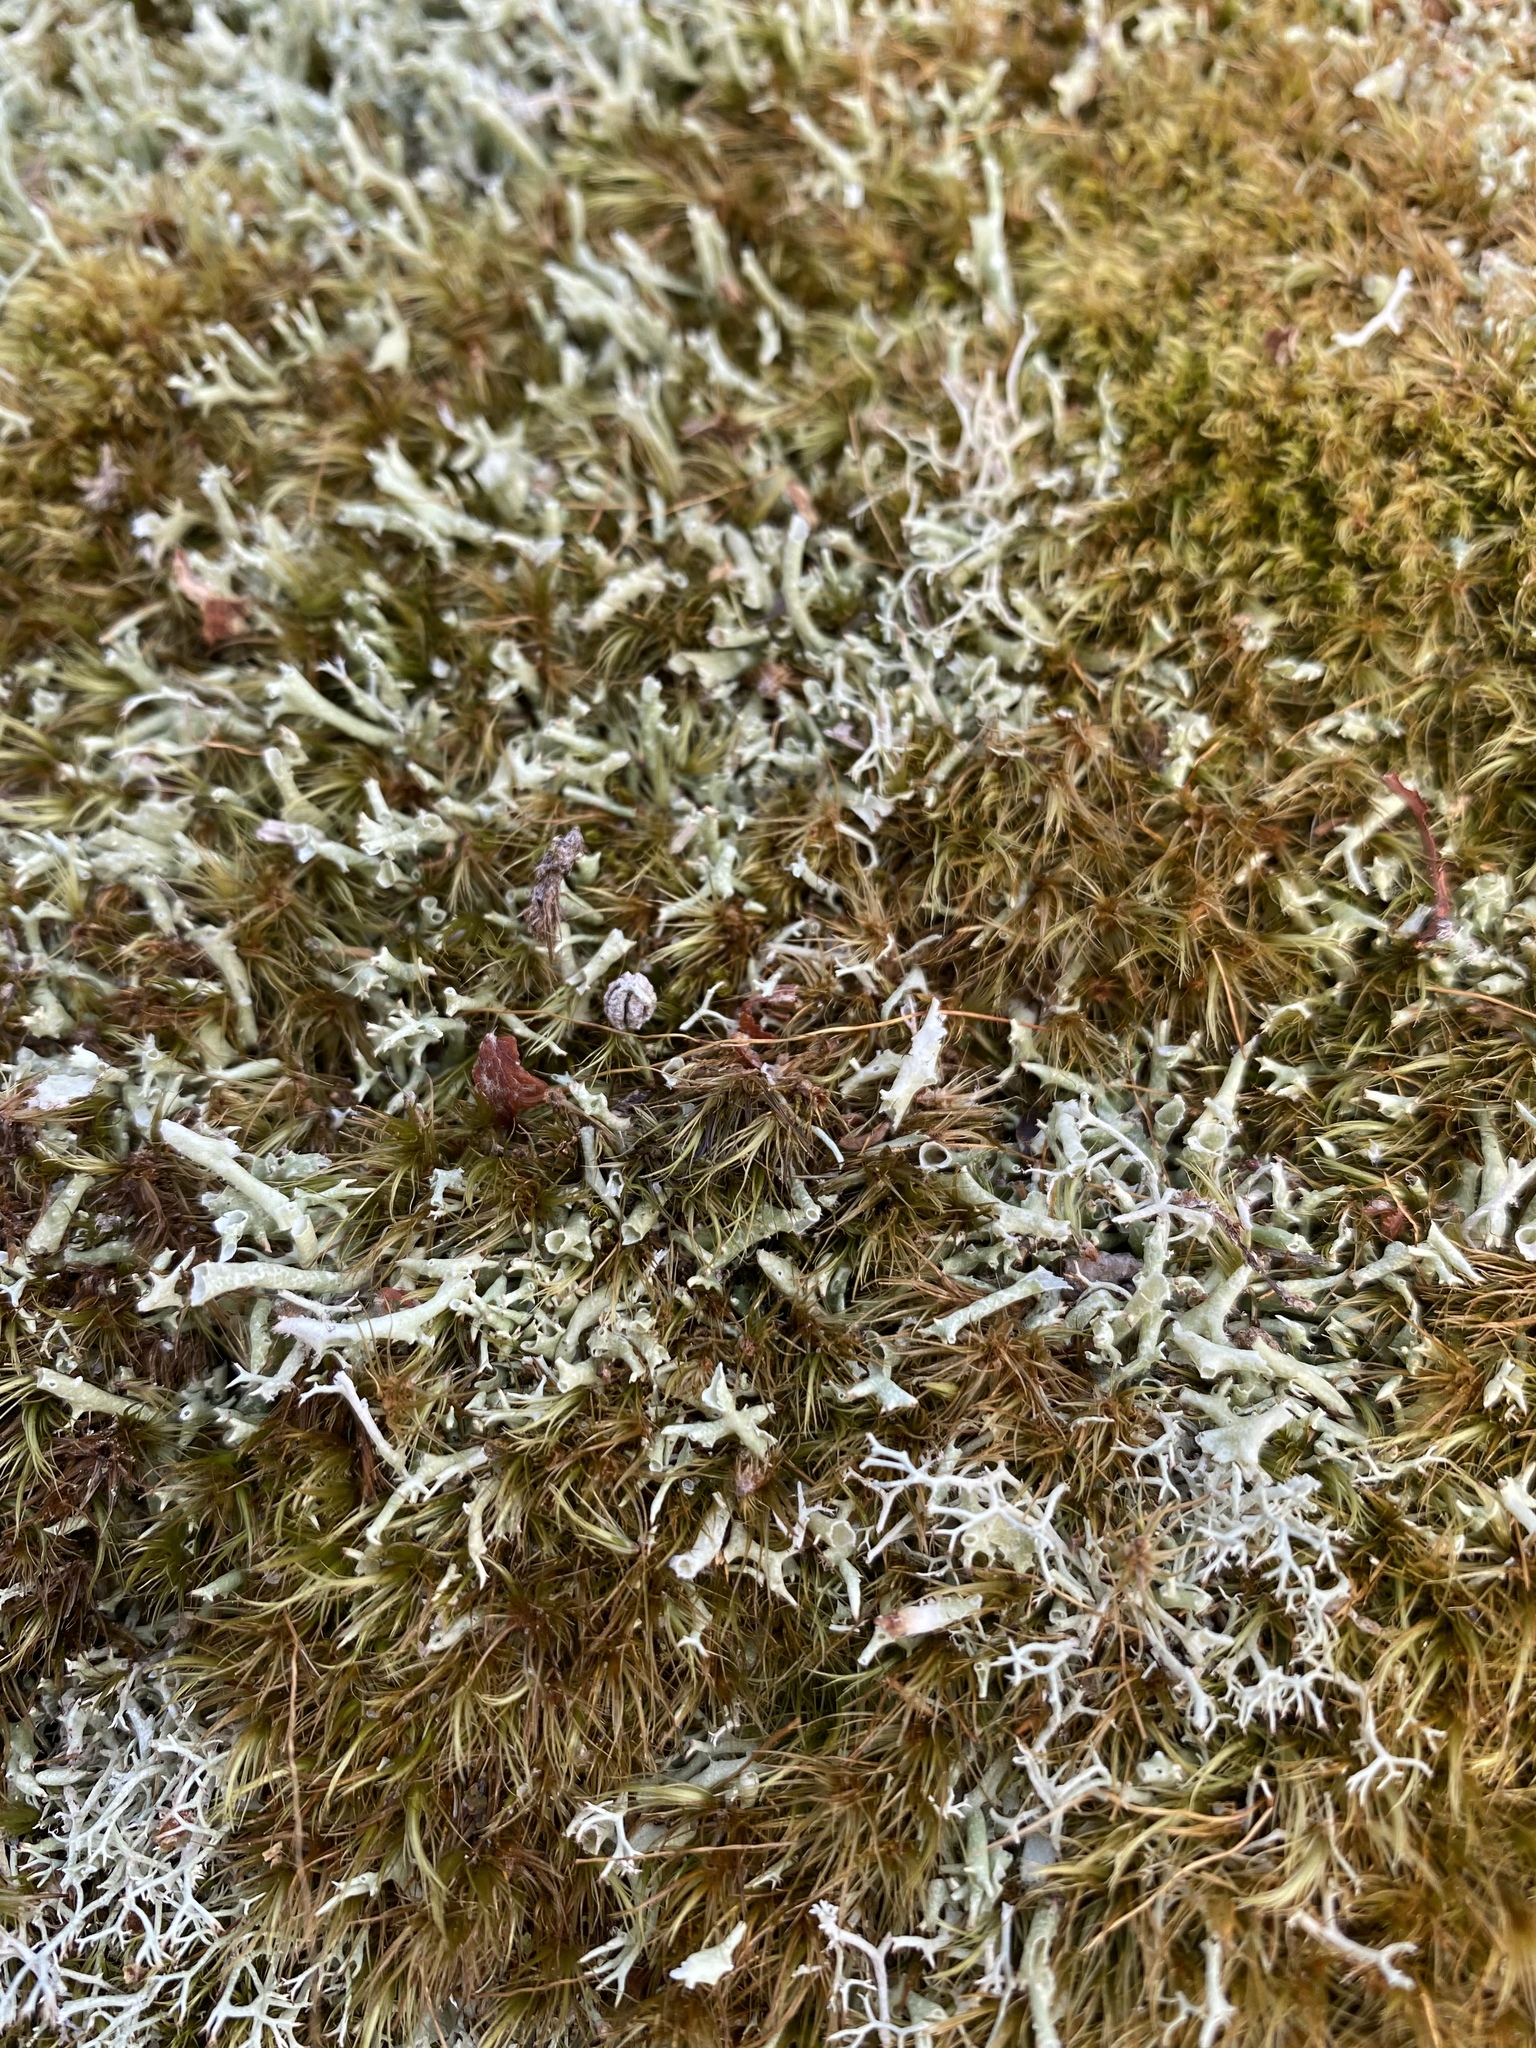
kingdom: Fungi
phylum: Ascomycota
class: Lecanoromycetes
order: Lecanorales
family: Cladoniaceae
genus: Cladonia
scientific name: Cladonia coniocraea
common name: Common powderhorn
